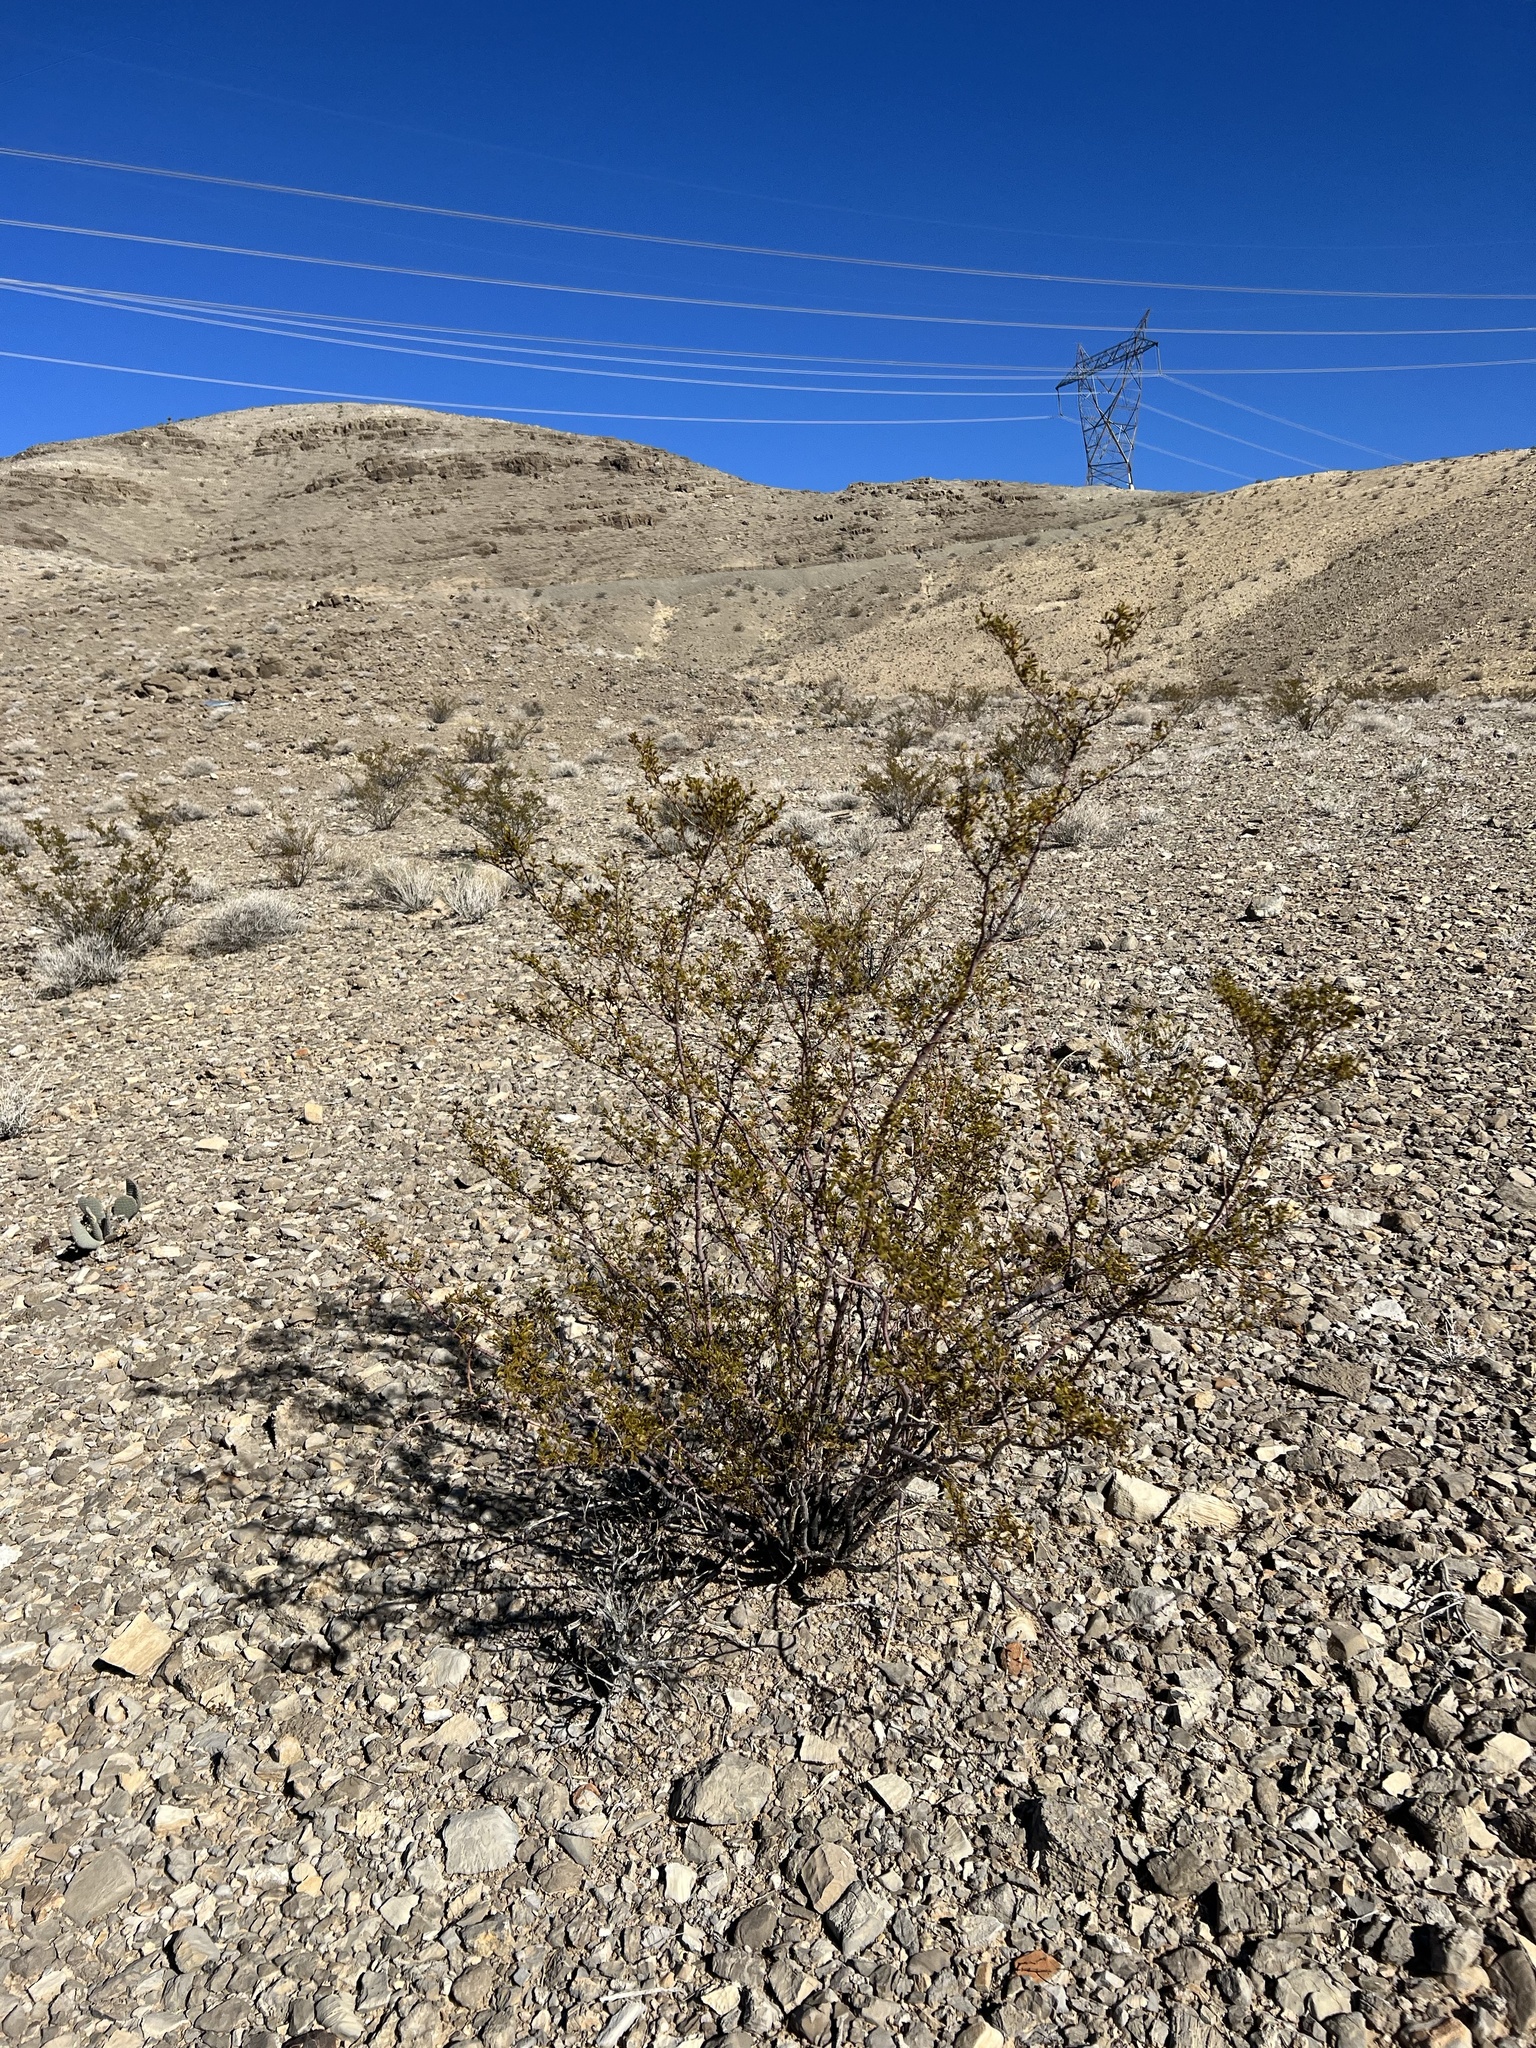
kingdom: Plantae
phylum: Tracheophyta
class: Magnoliopsida
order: Zygophyllales
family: Zygophyllaceae
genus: Larrea
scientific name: Larrea tridentata
